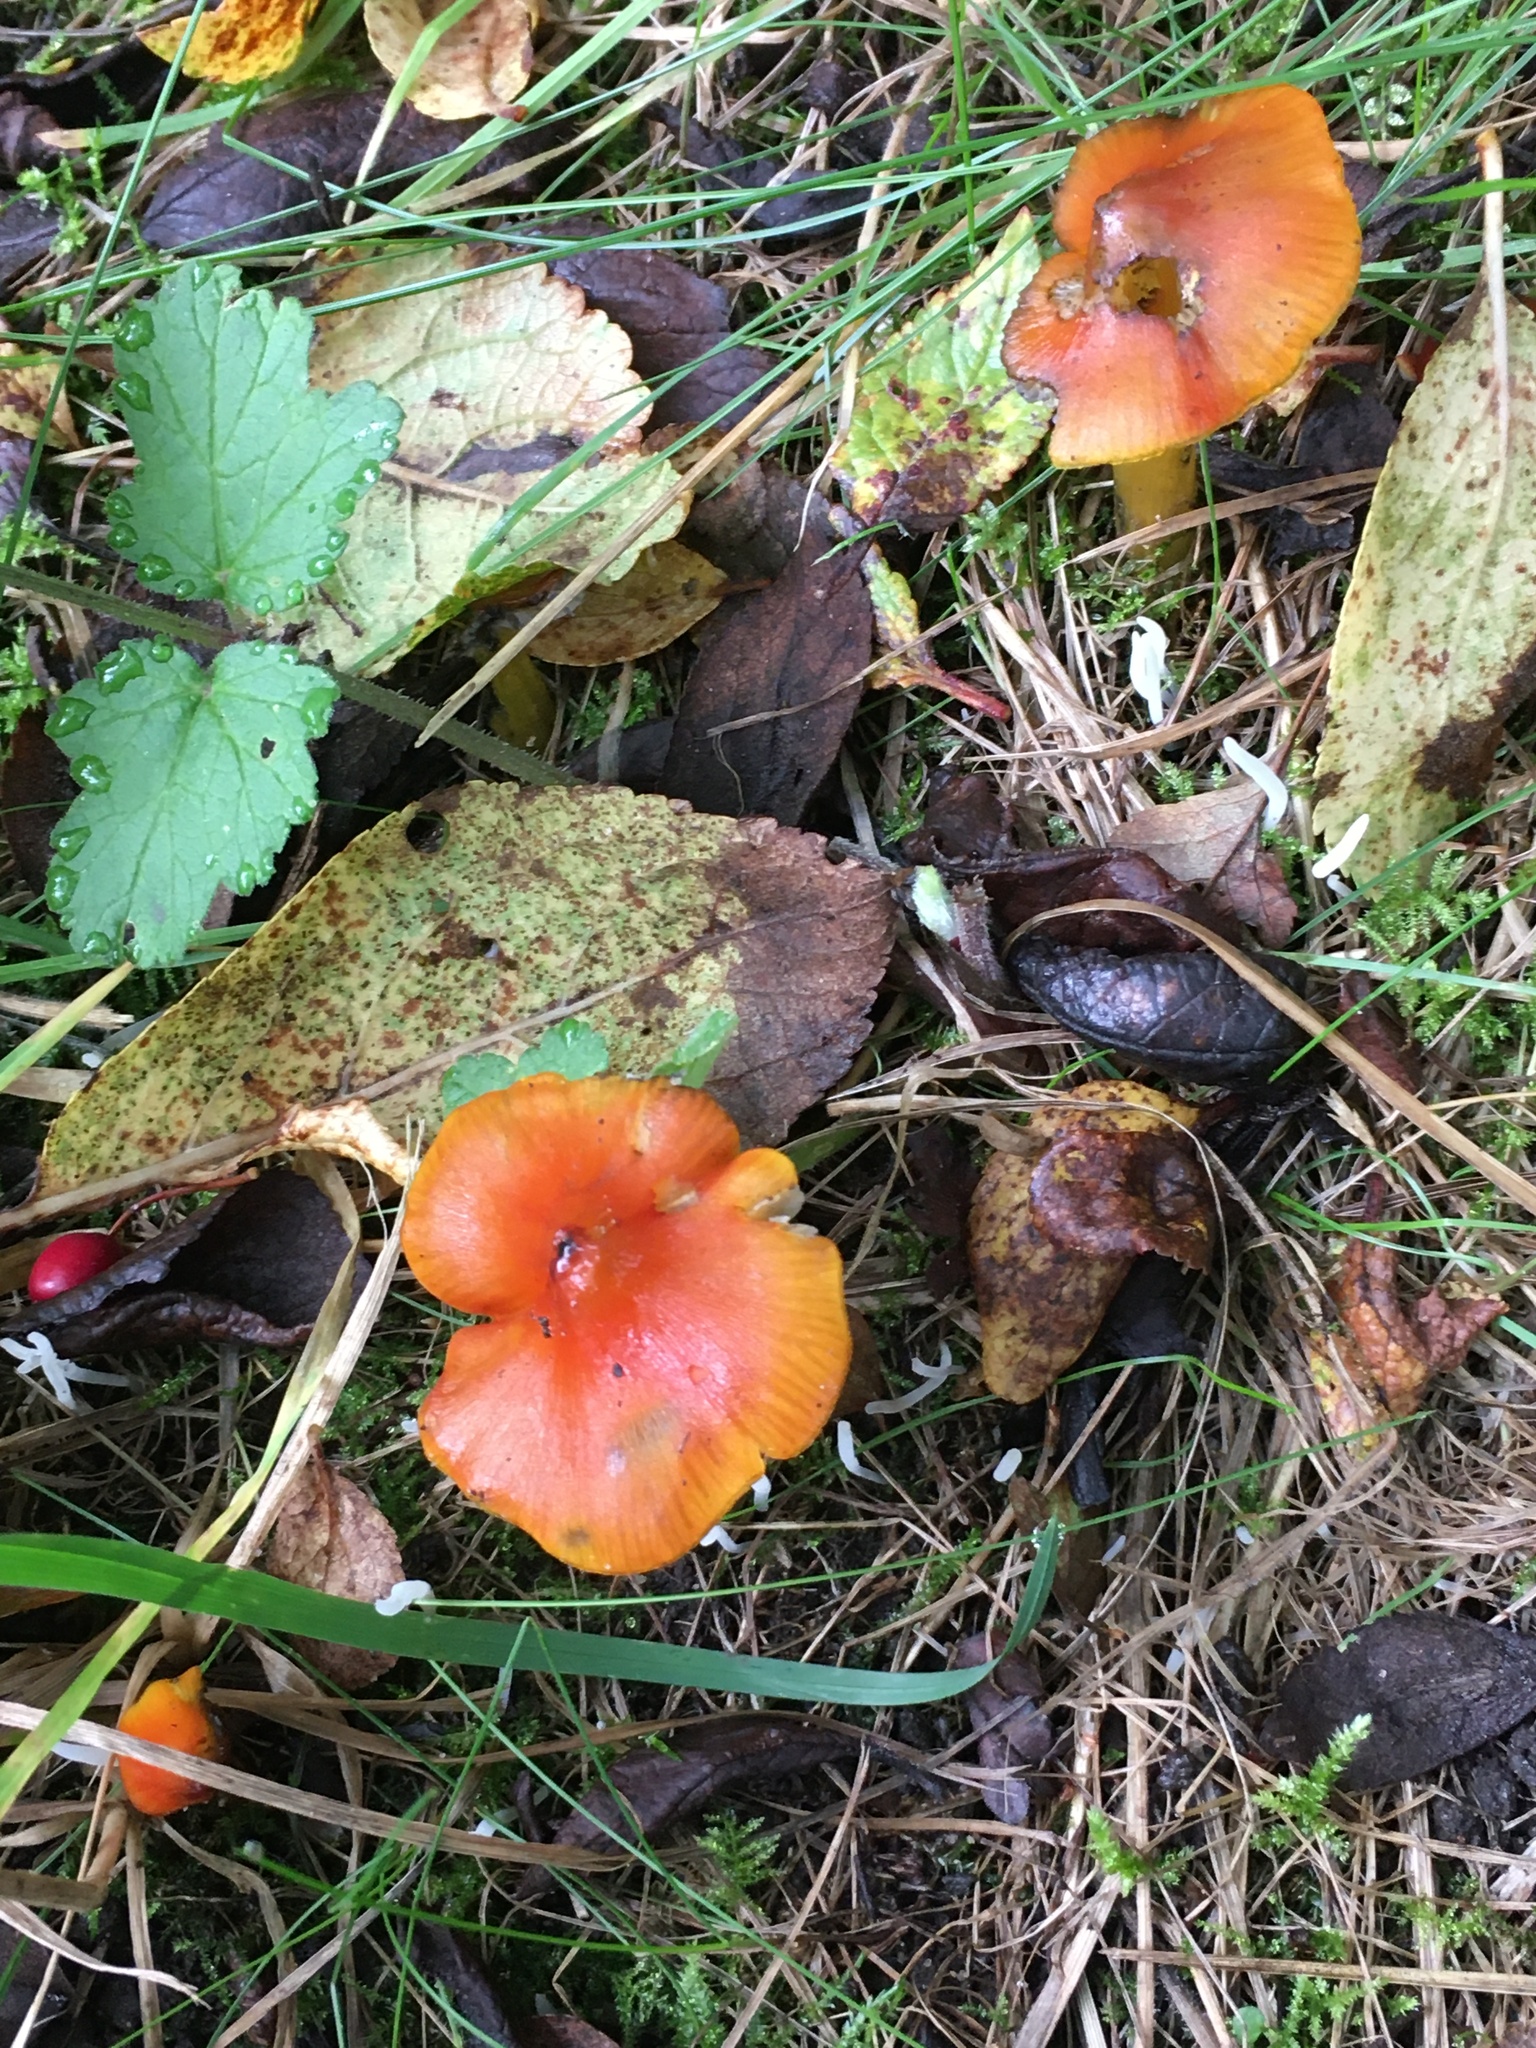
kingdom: Fungi
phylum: Basidiomycota
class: Agaricomycetes
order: Agaricales
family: Hygrophoraceae
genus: Hygrocybe
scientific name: Hygrocybe conica
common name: Blackening wax-cap
